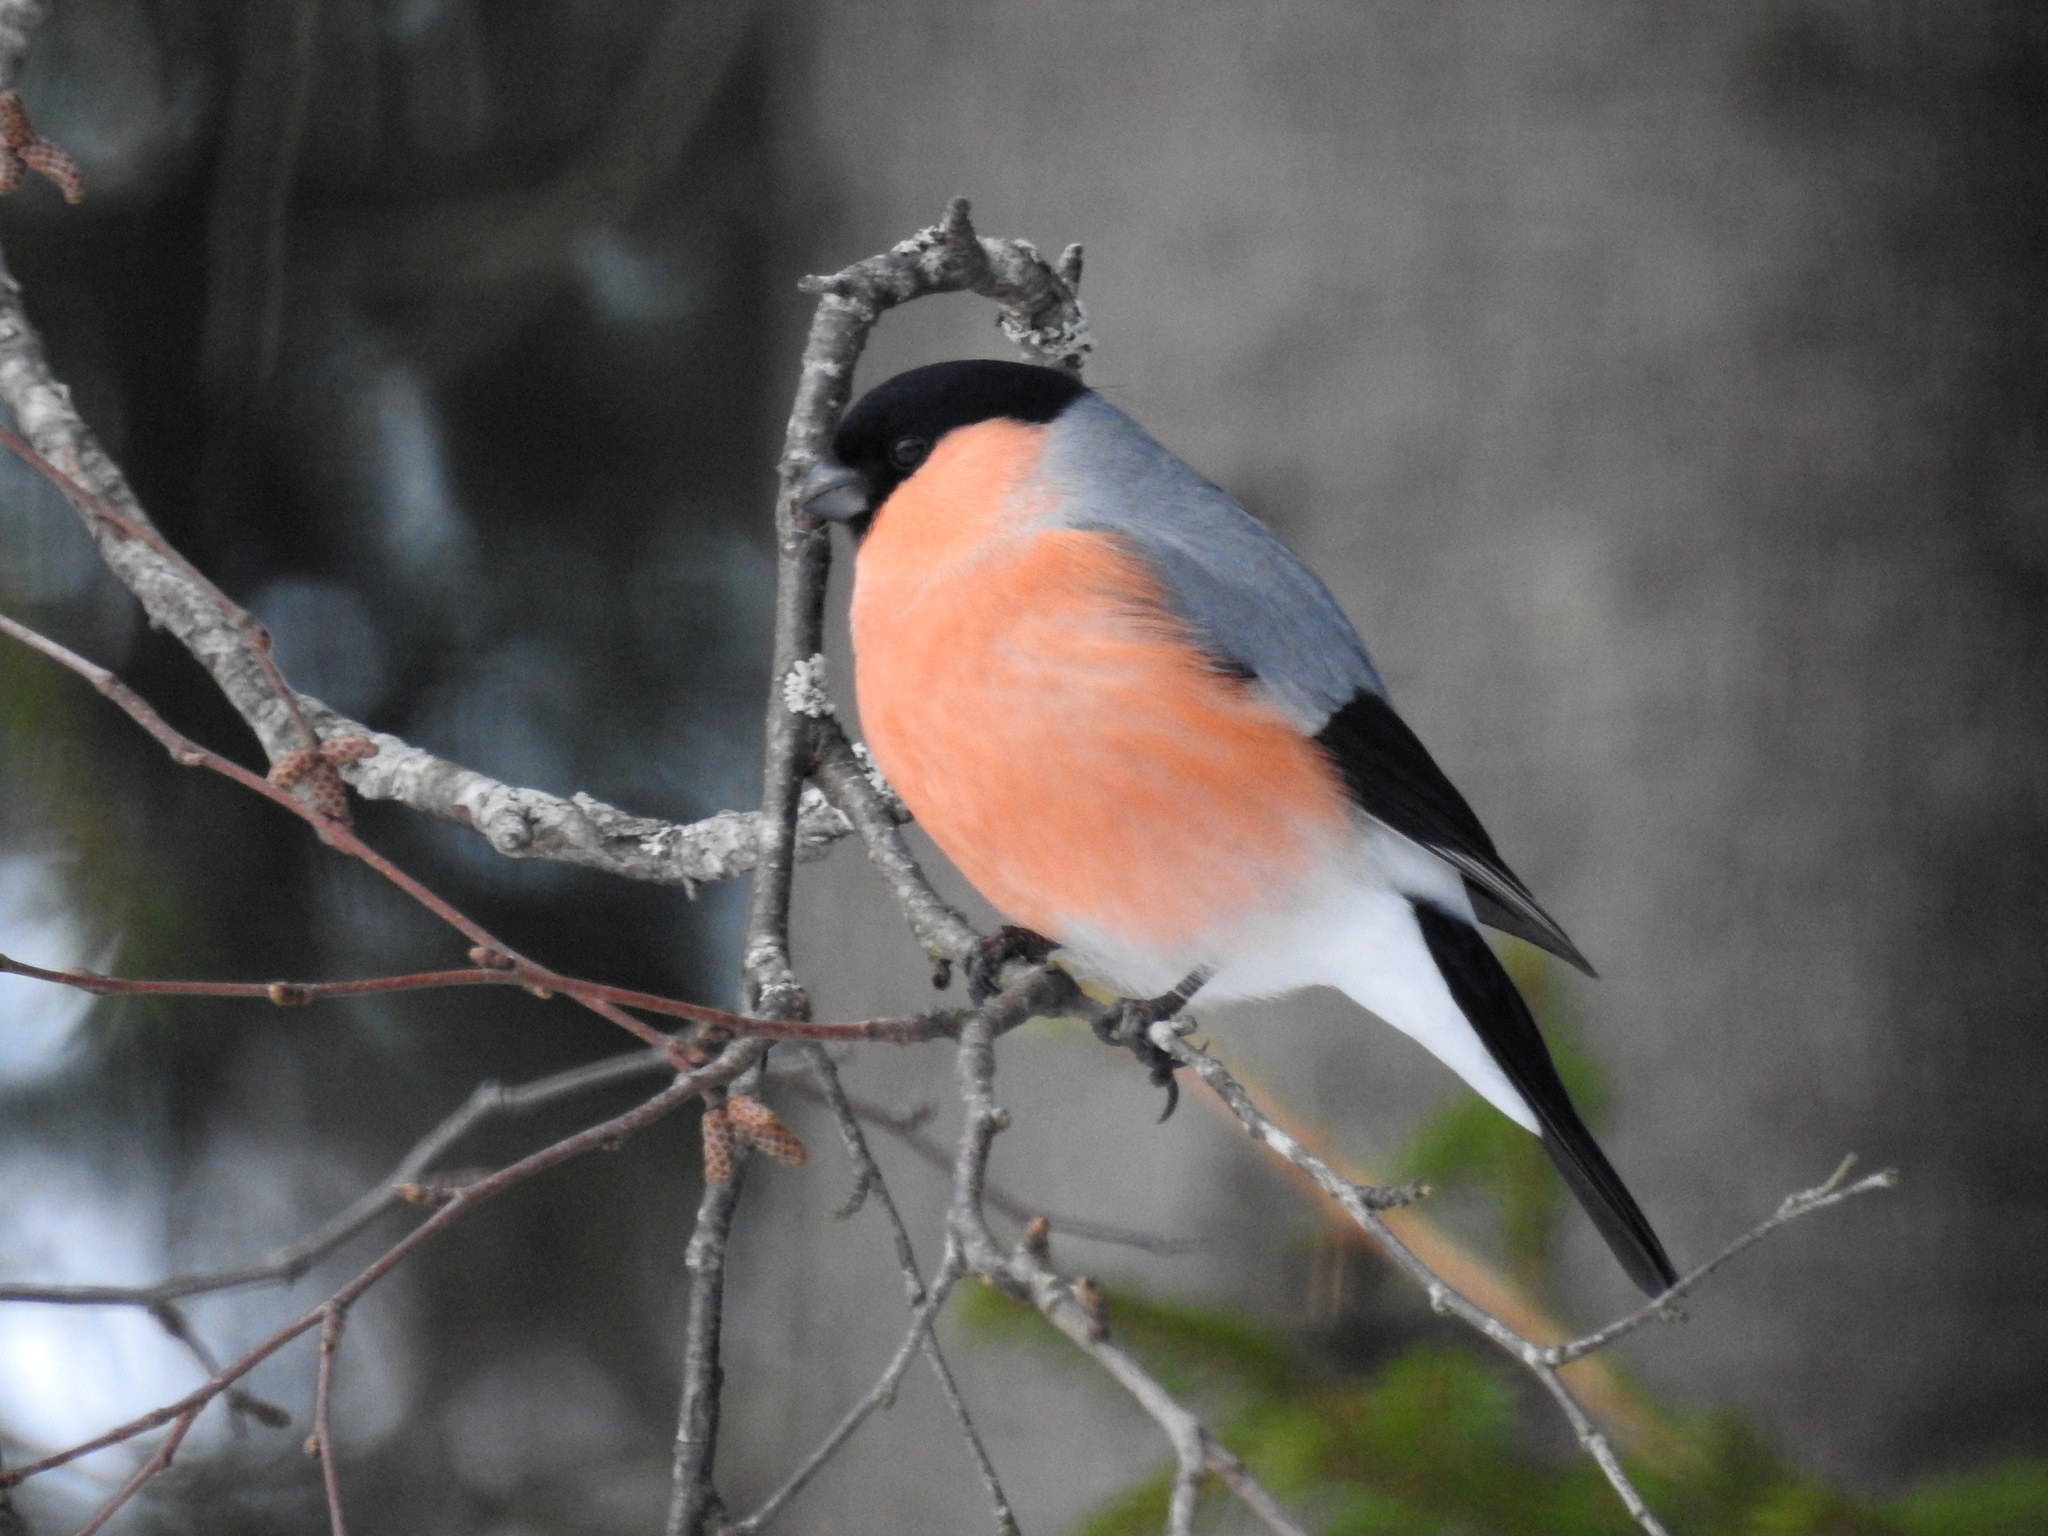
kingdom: Animalia
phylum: Chordata
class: Aves
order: Passeriformes
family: Fringillidae
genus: Pyrrhula
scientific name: Pyrrhula pyrrhula
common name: Eurasian bullfinch
